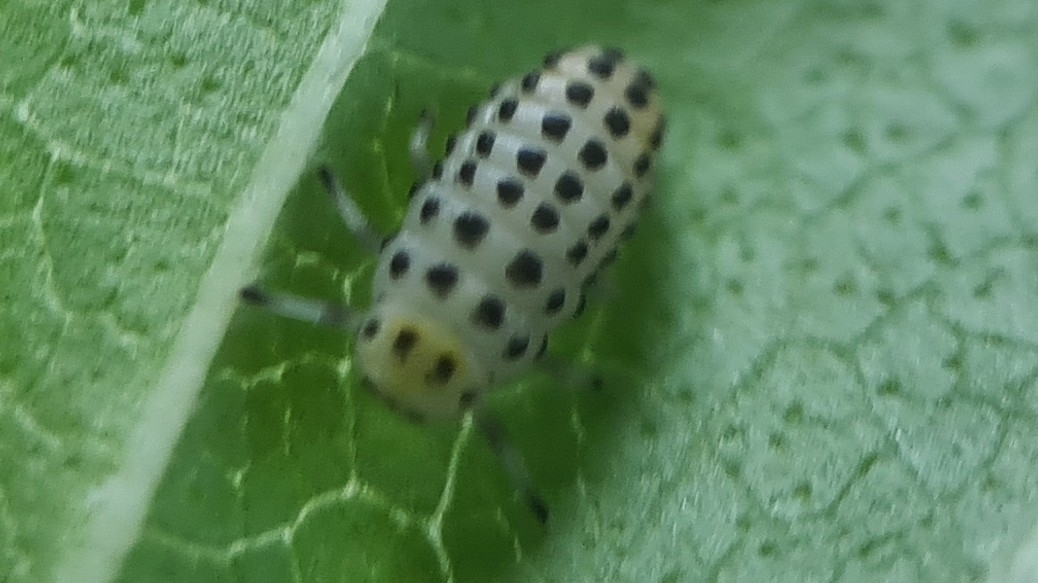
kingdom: Animalia
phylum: Arthropoda
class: Insecta
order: Coleoptera
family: Coccinellidae
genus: Illeis
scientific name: Illeis galbula
